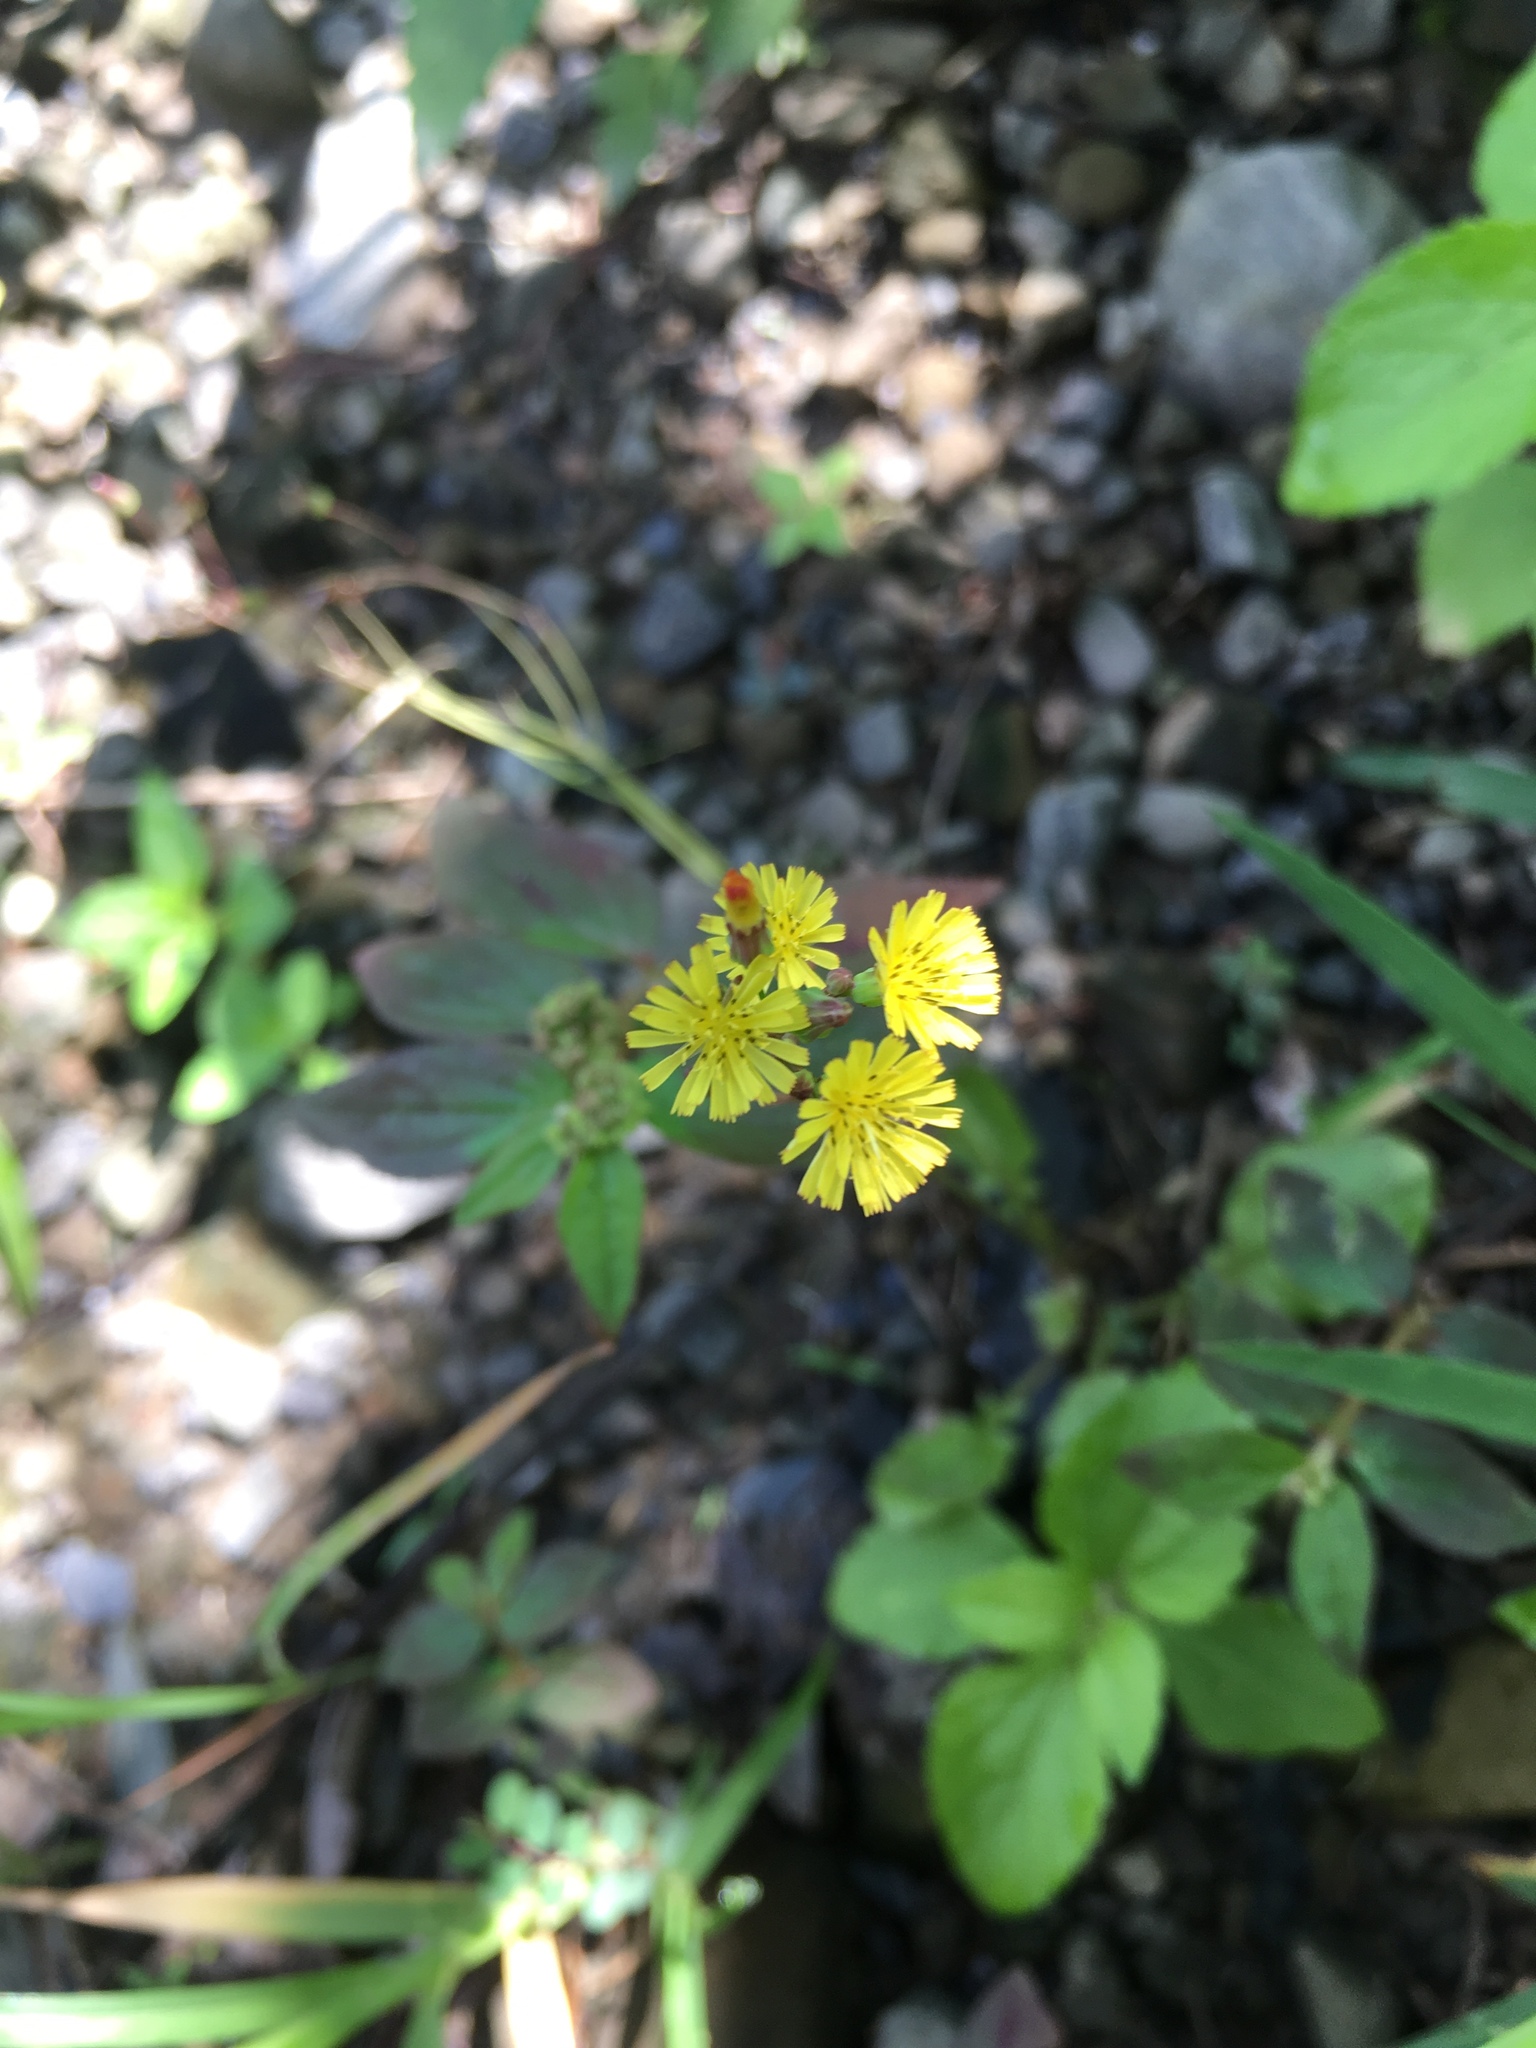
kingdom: Plantae
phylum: Tracheophyta
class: Magnoliopsida
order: Asterales
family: Asteraceae
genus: Youngia
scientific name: Youngia japonica
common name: Oriental false hawksbeard
